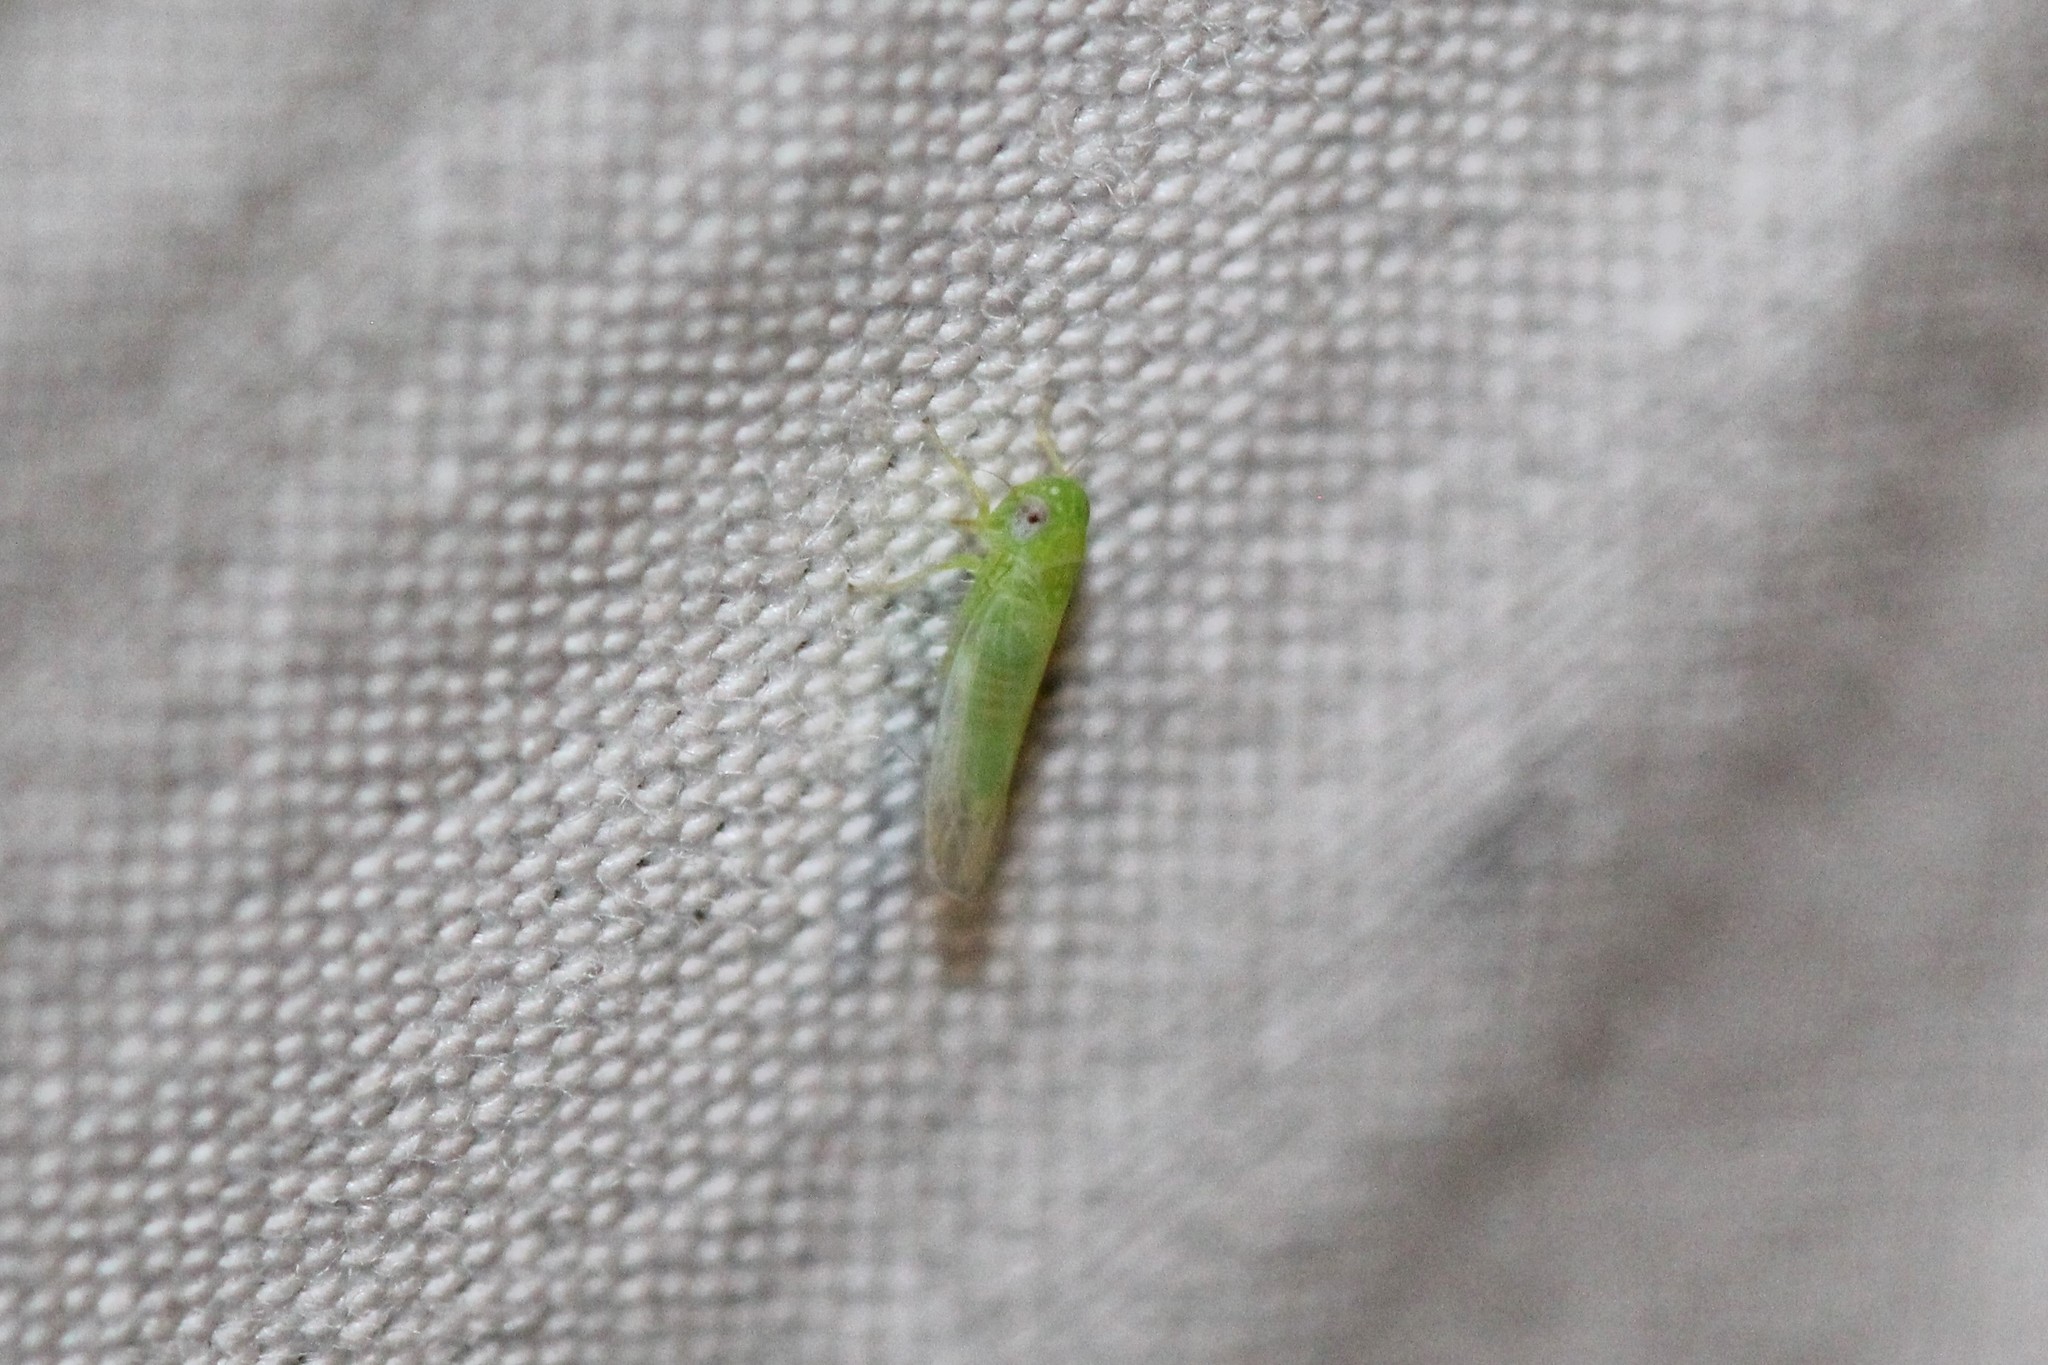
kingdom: Animalia
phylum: Arthropoda
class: Insecta
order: Hemiptera
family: Cicadellidae
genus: Empoasca
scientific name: Empoasca fabae
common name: Potato leafhopper
